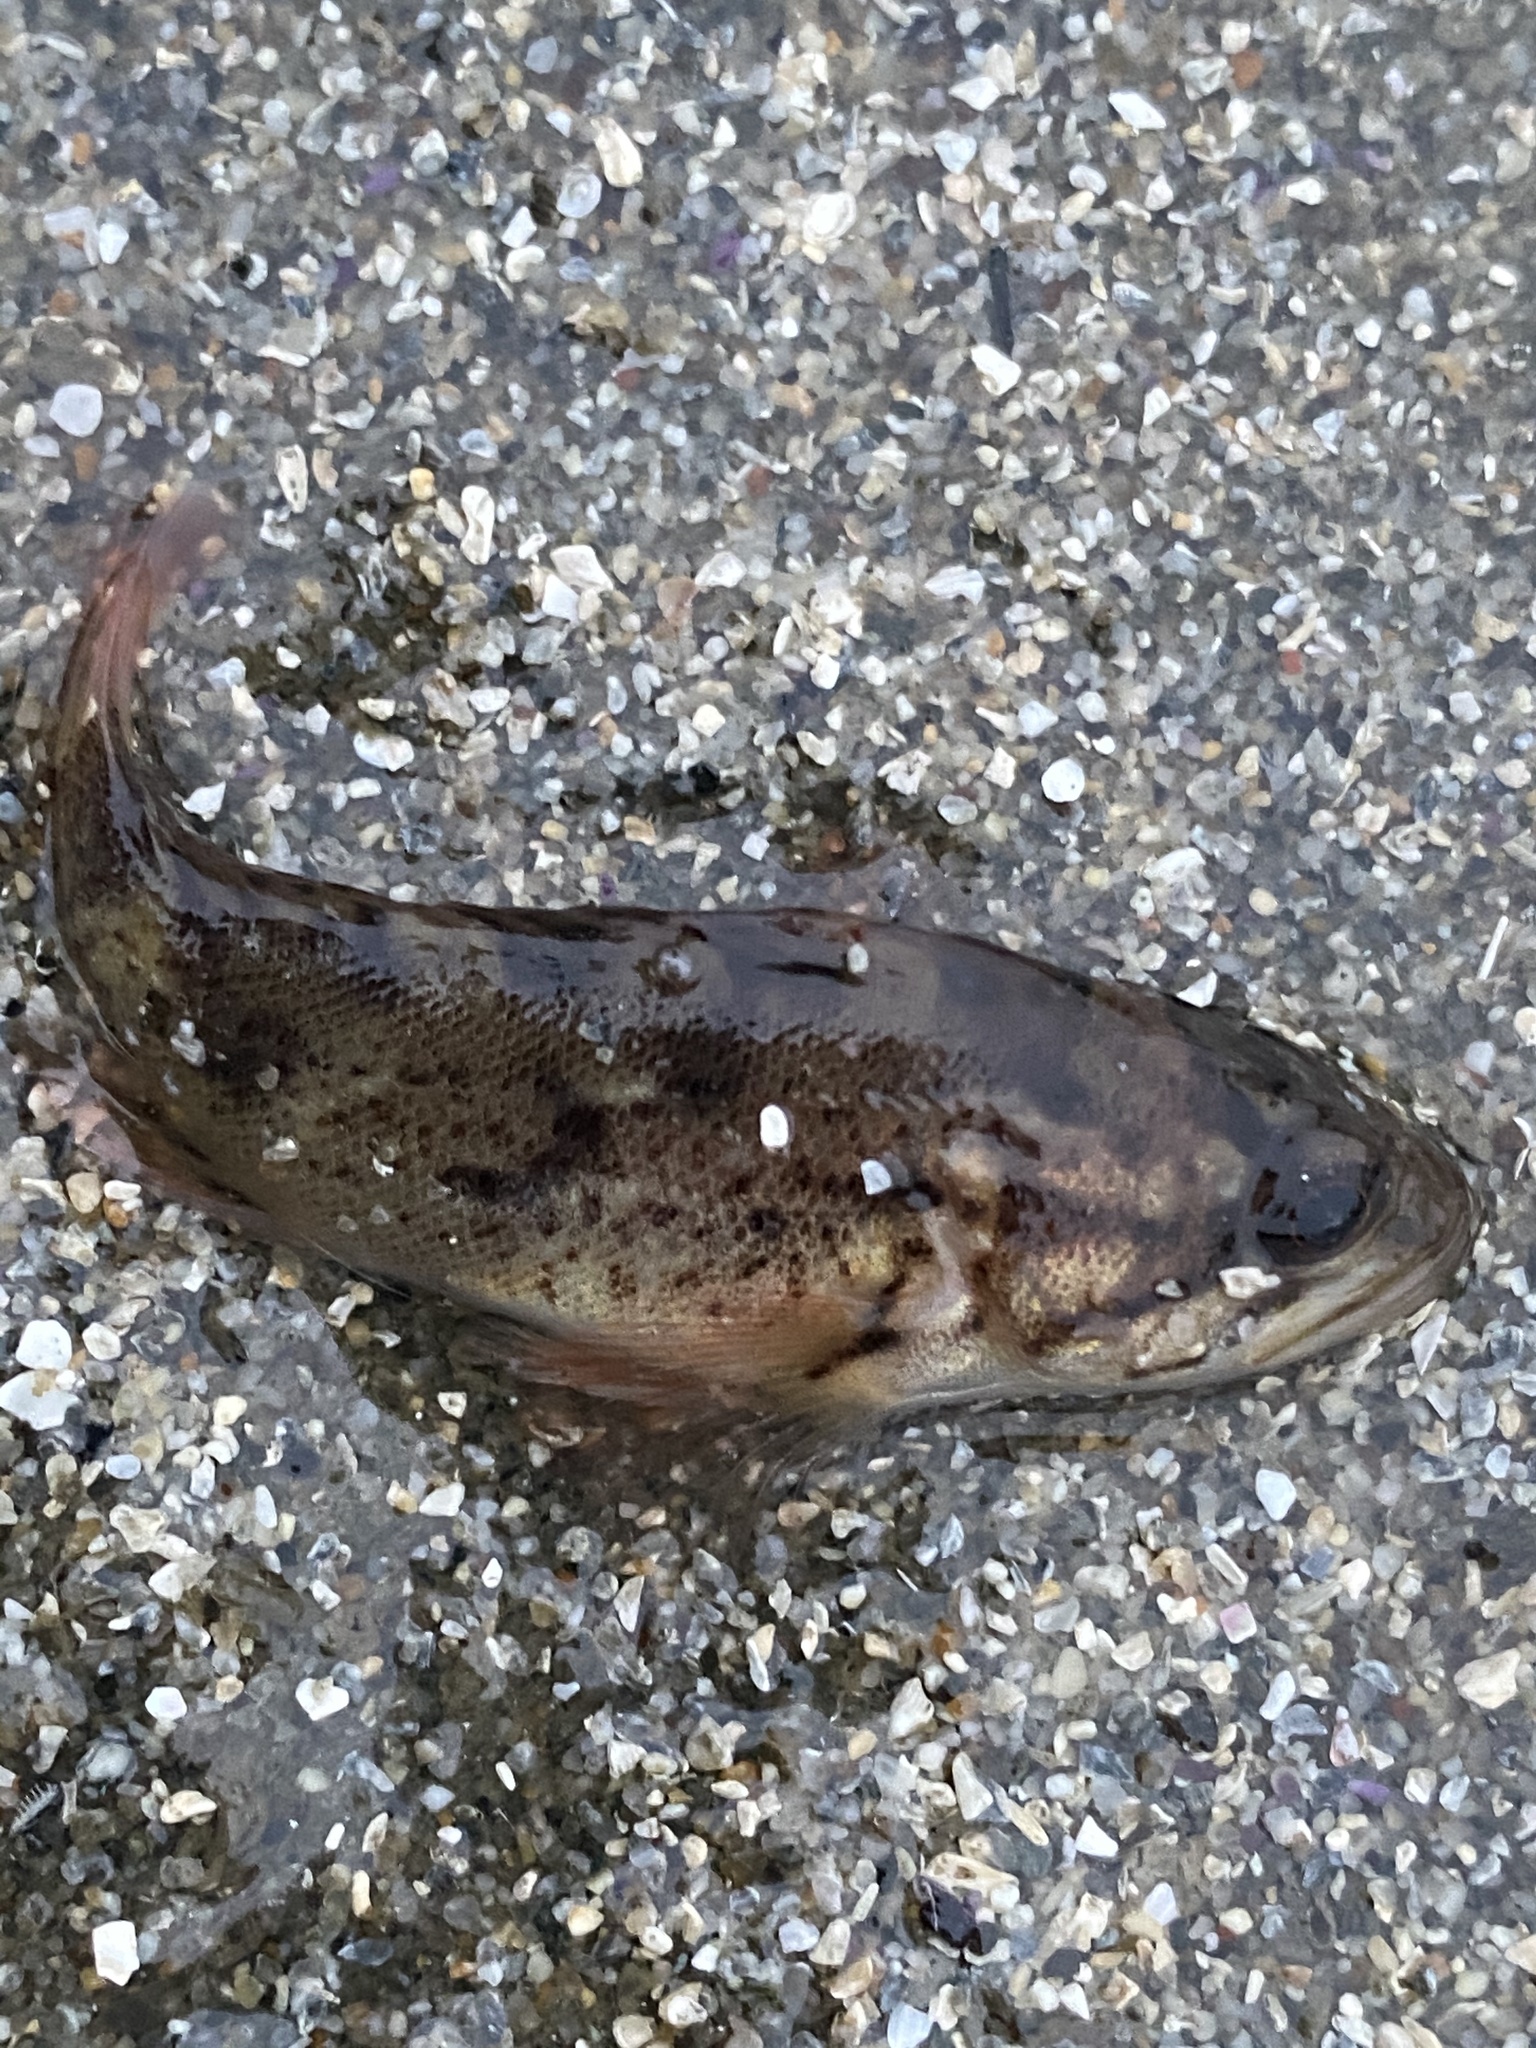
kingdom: Animalia
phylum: Chordata
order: Scorpaeniformes
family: Sebastidae
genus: Sebastes
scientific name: Sebastes rastrelliger
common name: Grass rockfish
